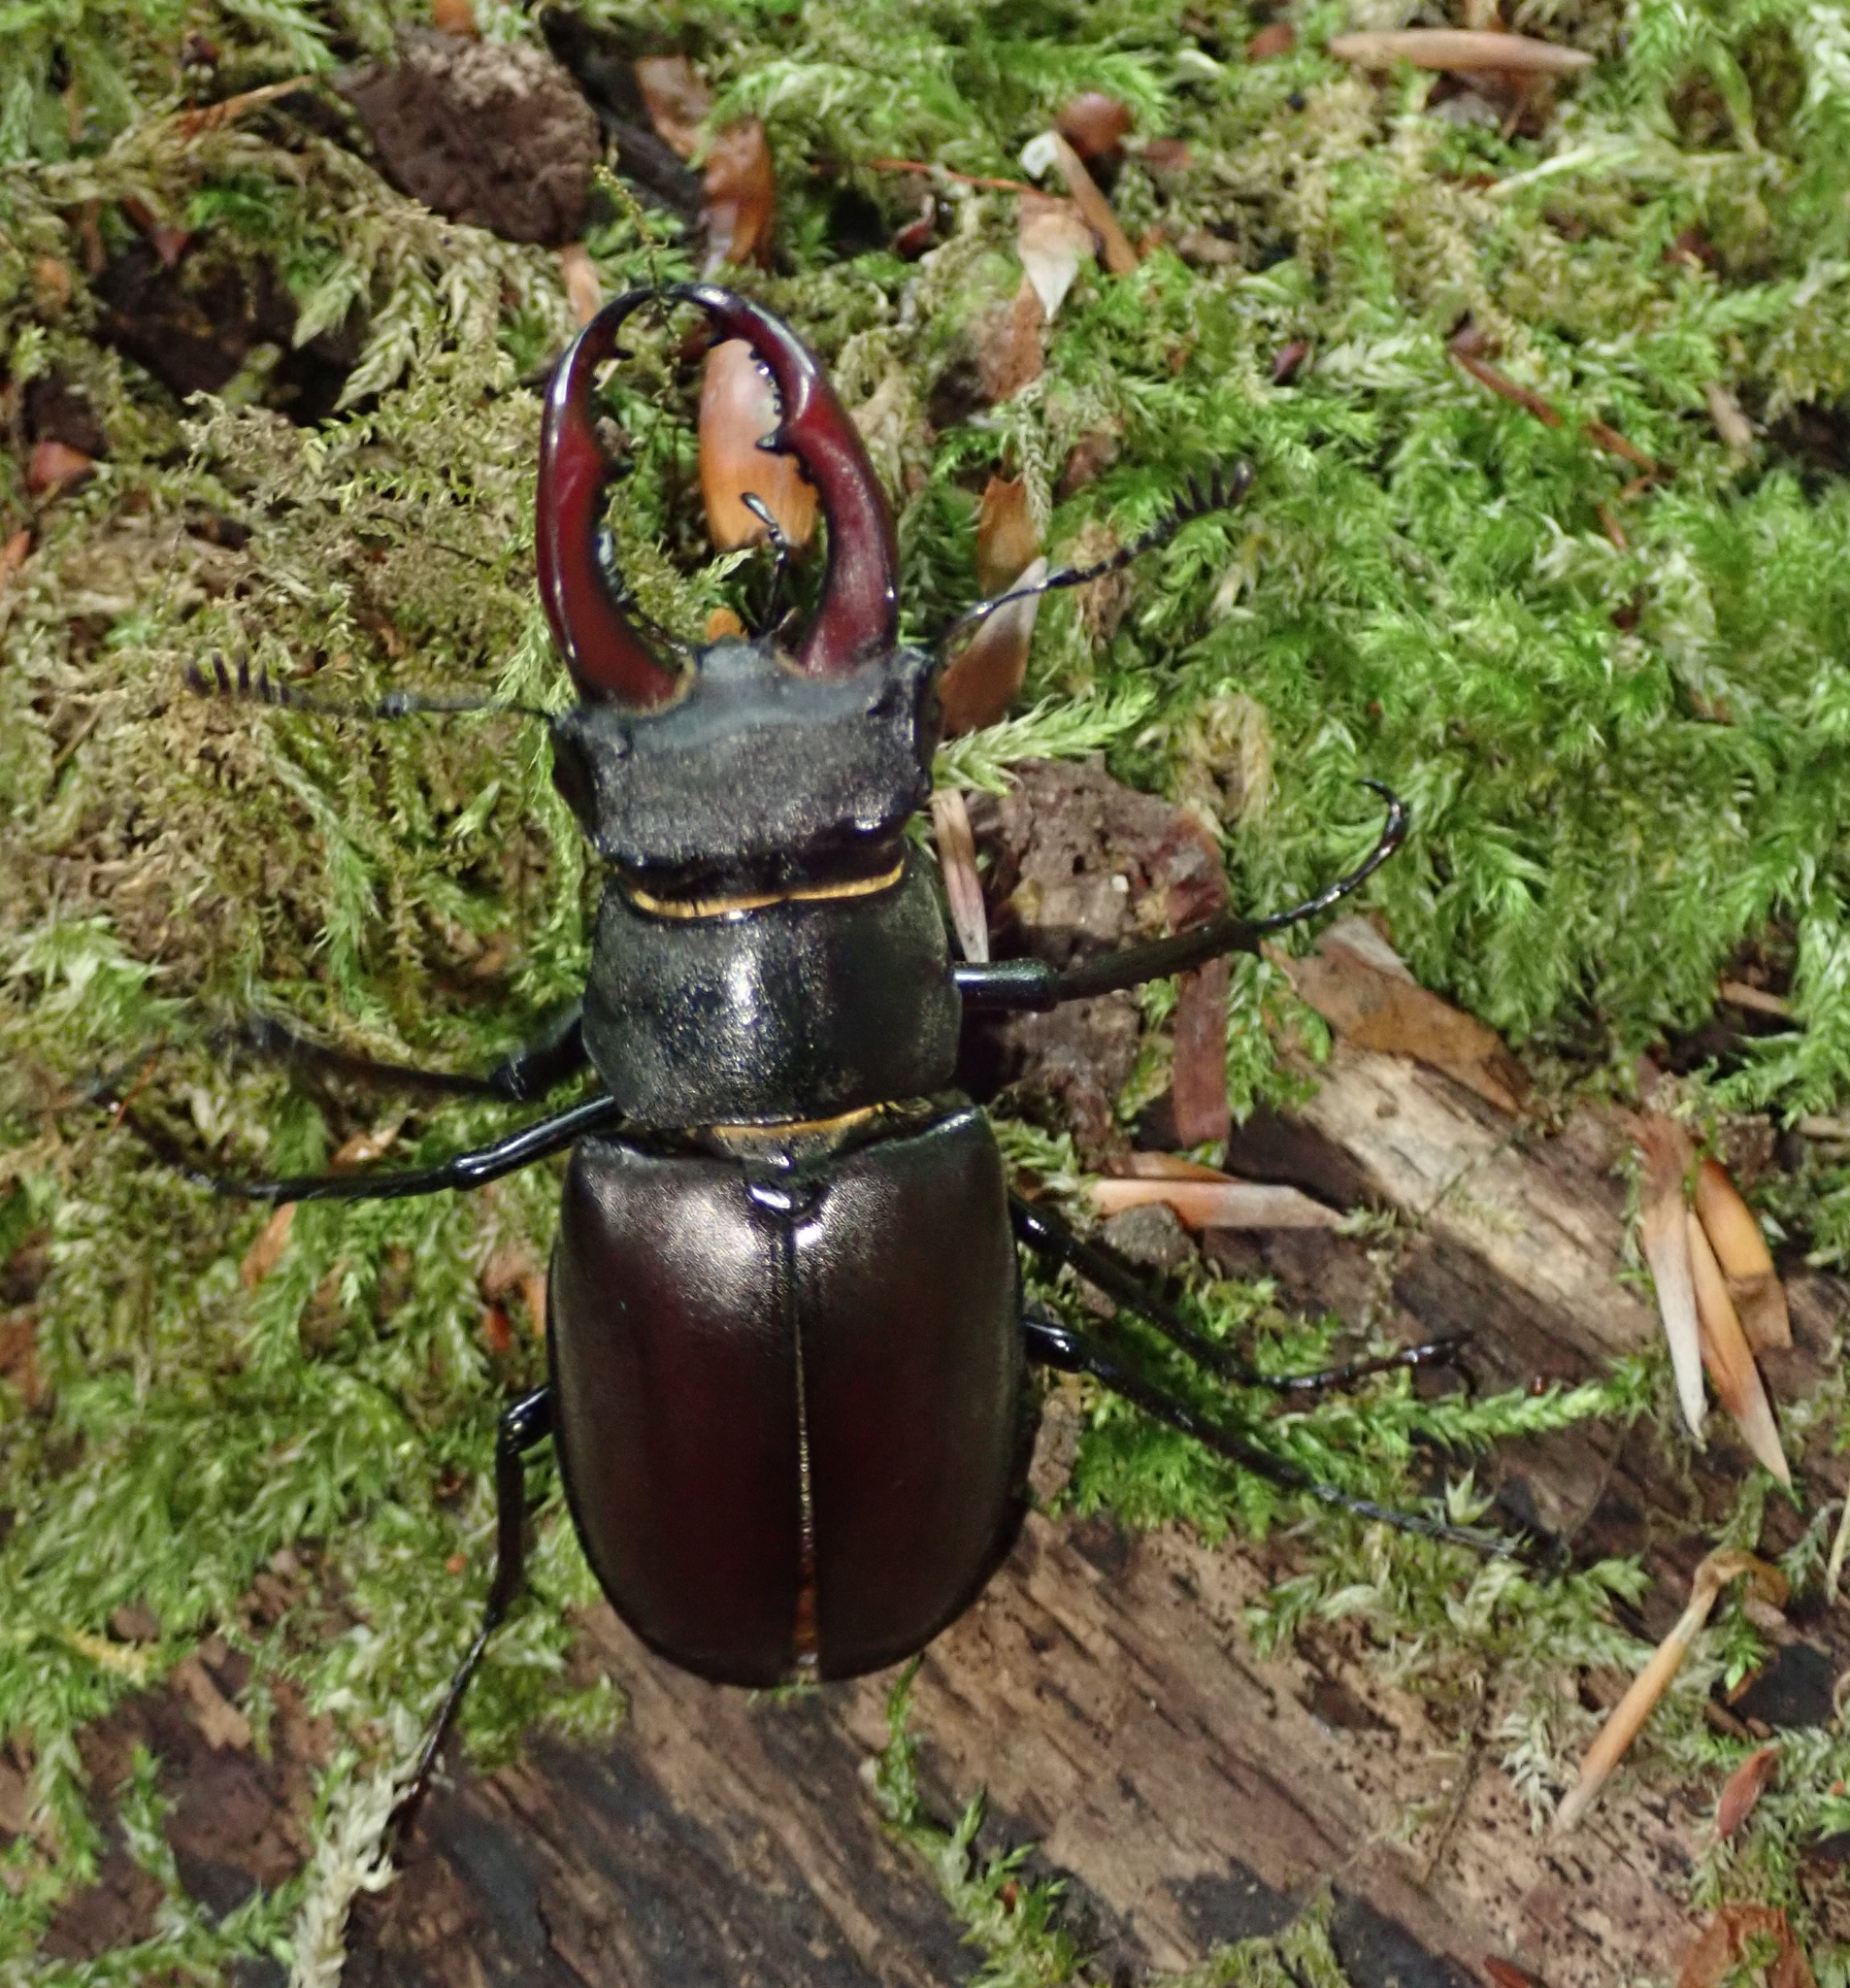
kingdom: Animalia
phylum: Arthropoda
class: Insecta
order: Coleoptera
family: Lucanidae
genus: Lucanus
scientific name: Lucanus cervus
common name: Stag beetle
